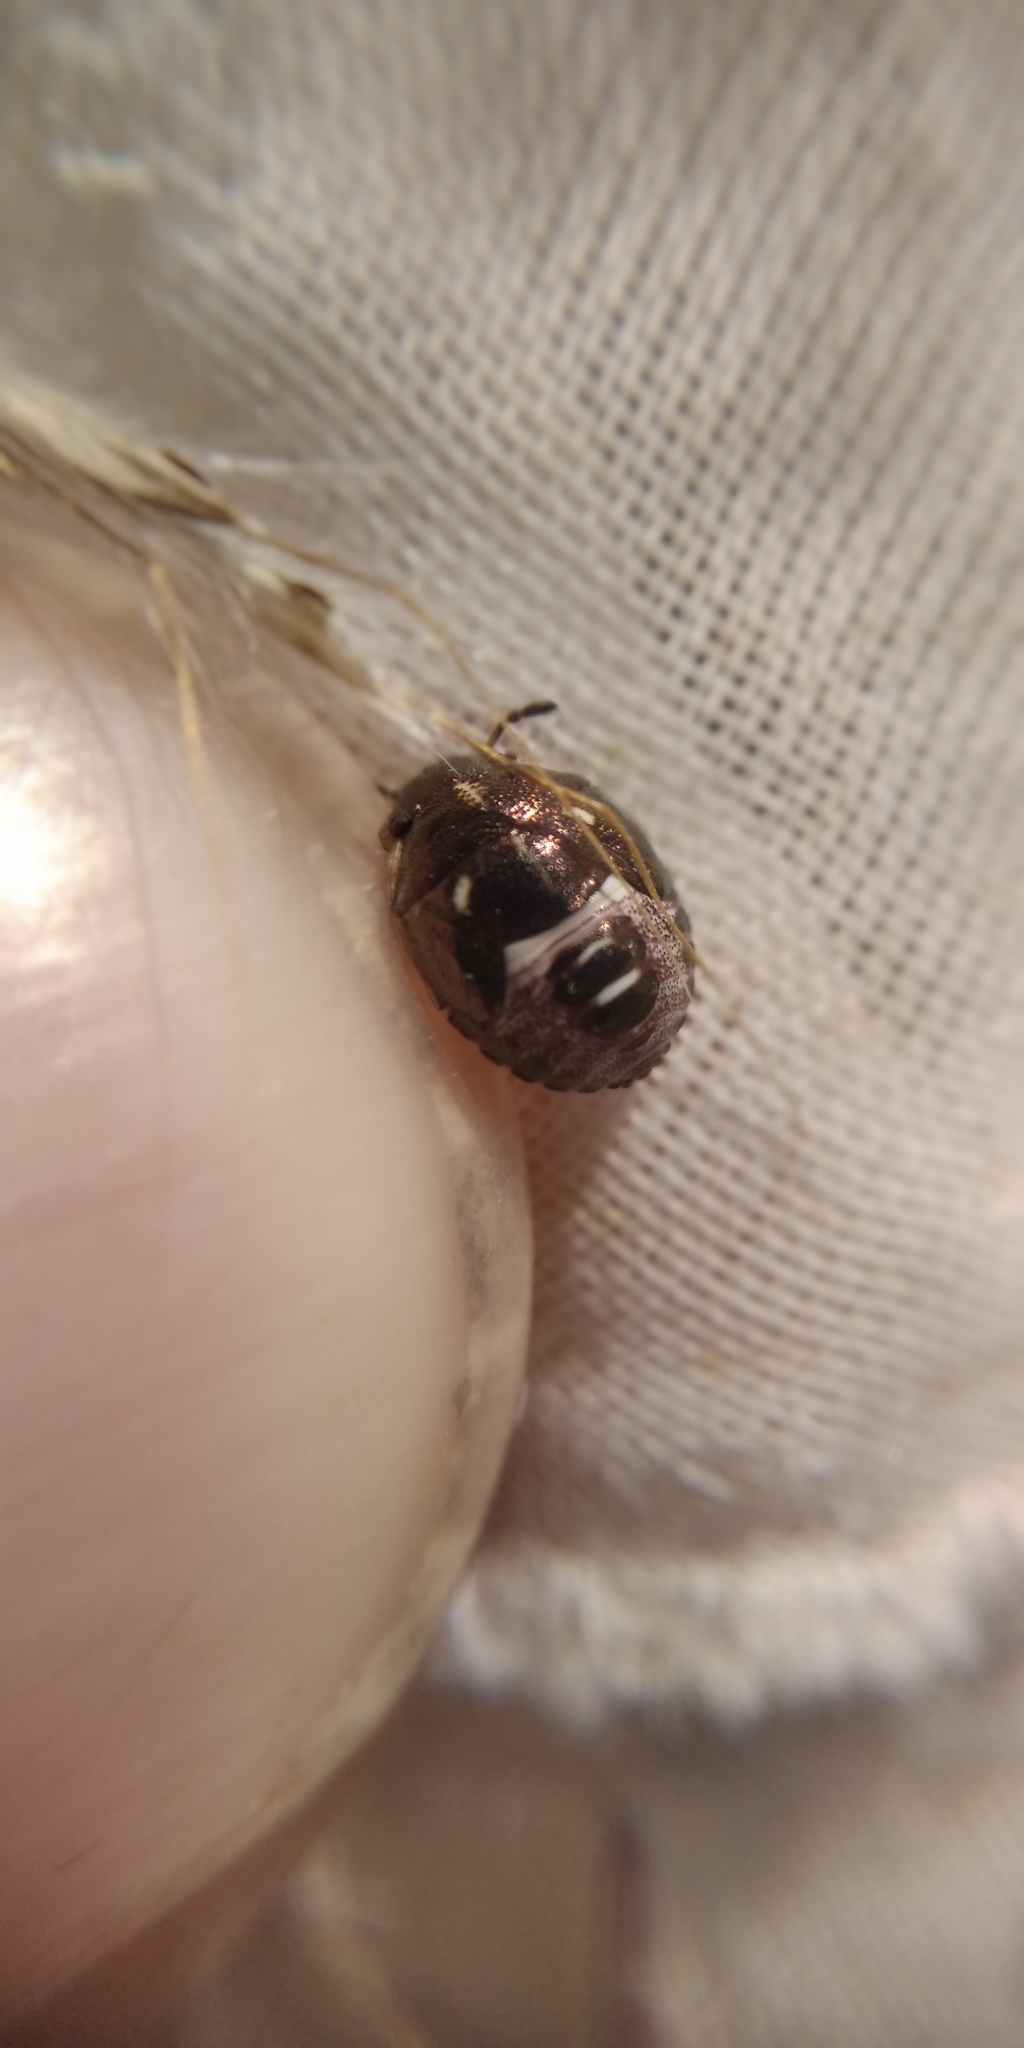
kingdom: Animalia
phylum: Arthropoda
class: Insecta
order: Hemiptera
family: Pentatomidae
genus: Rubiconia
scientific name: Rubiconia intermedia
